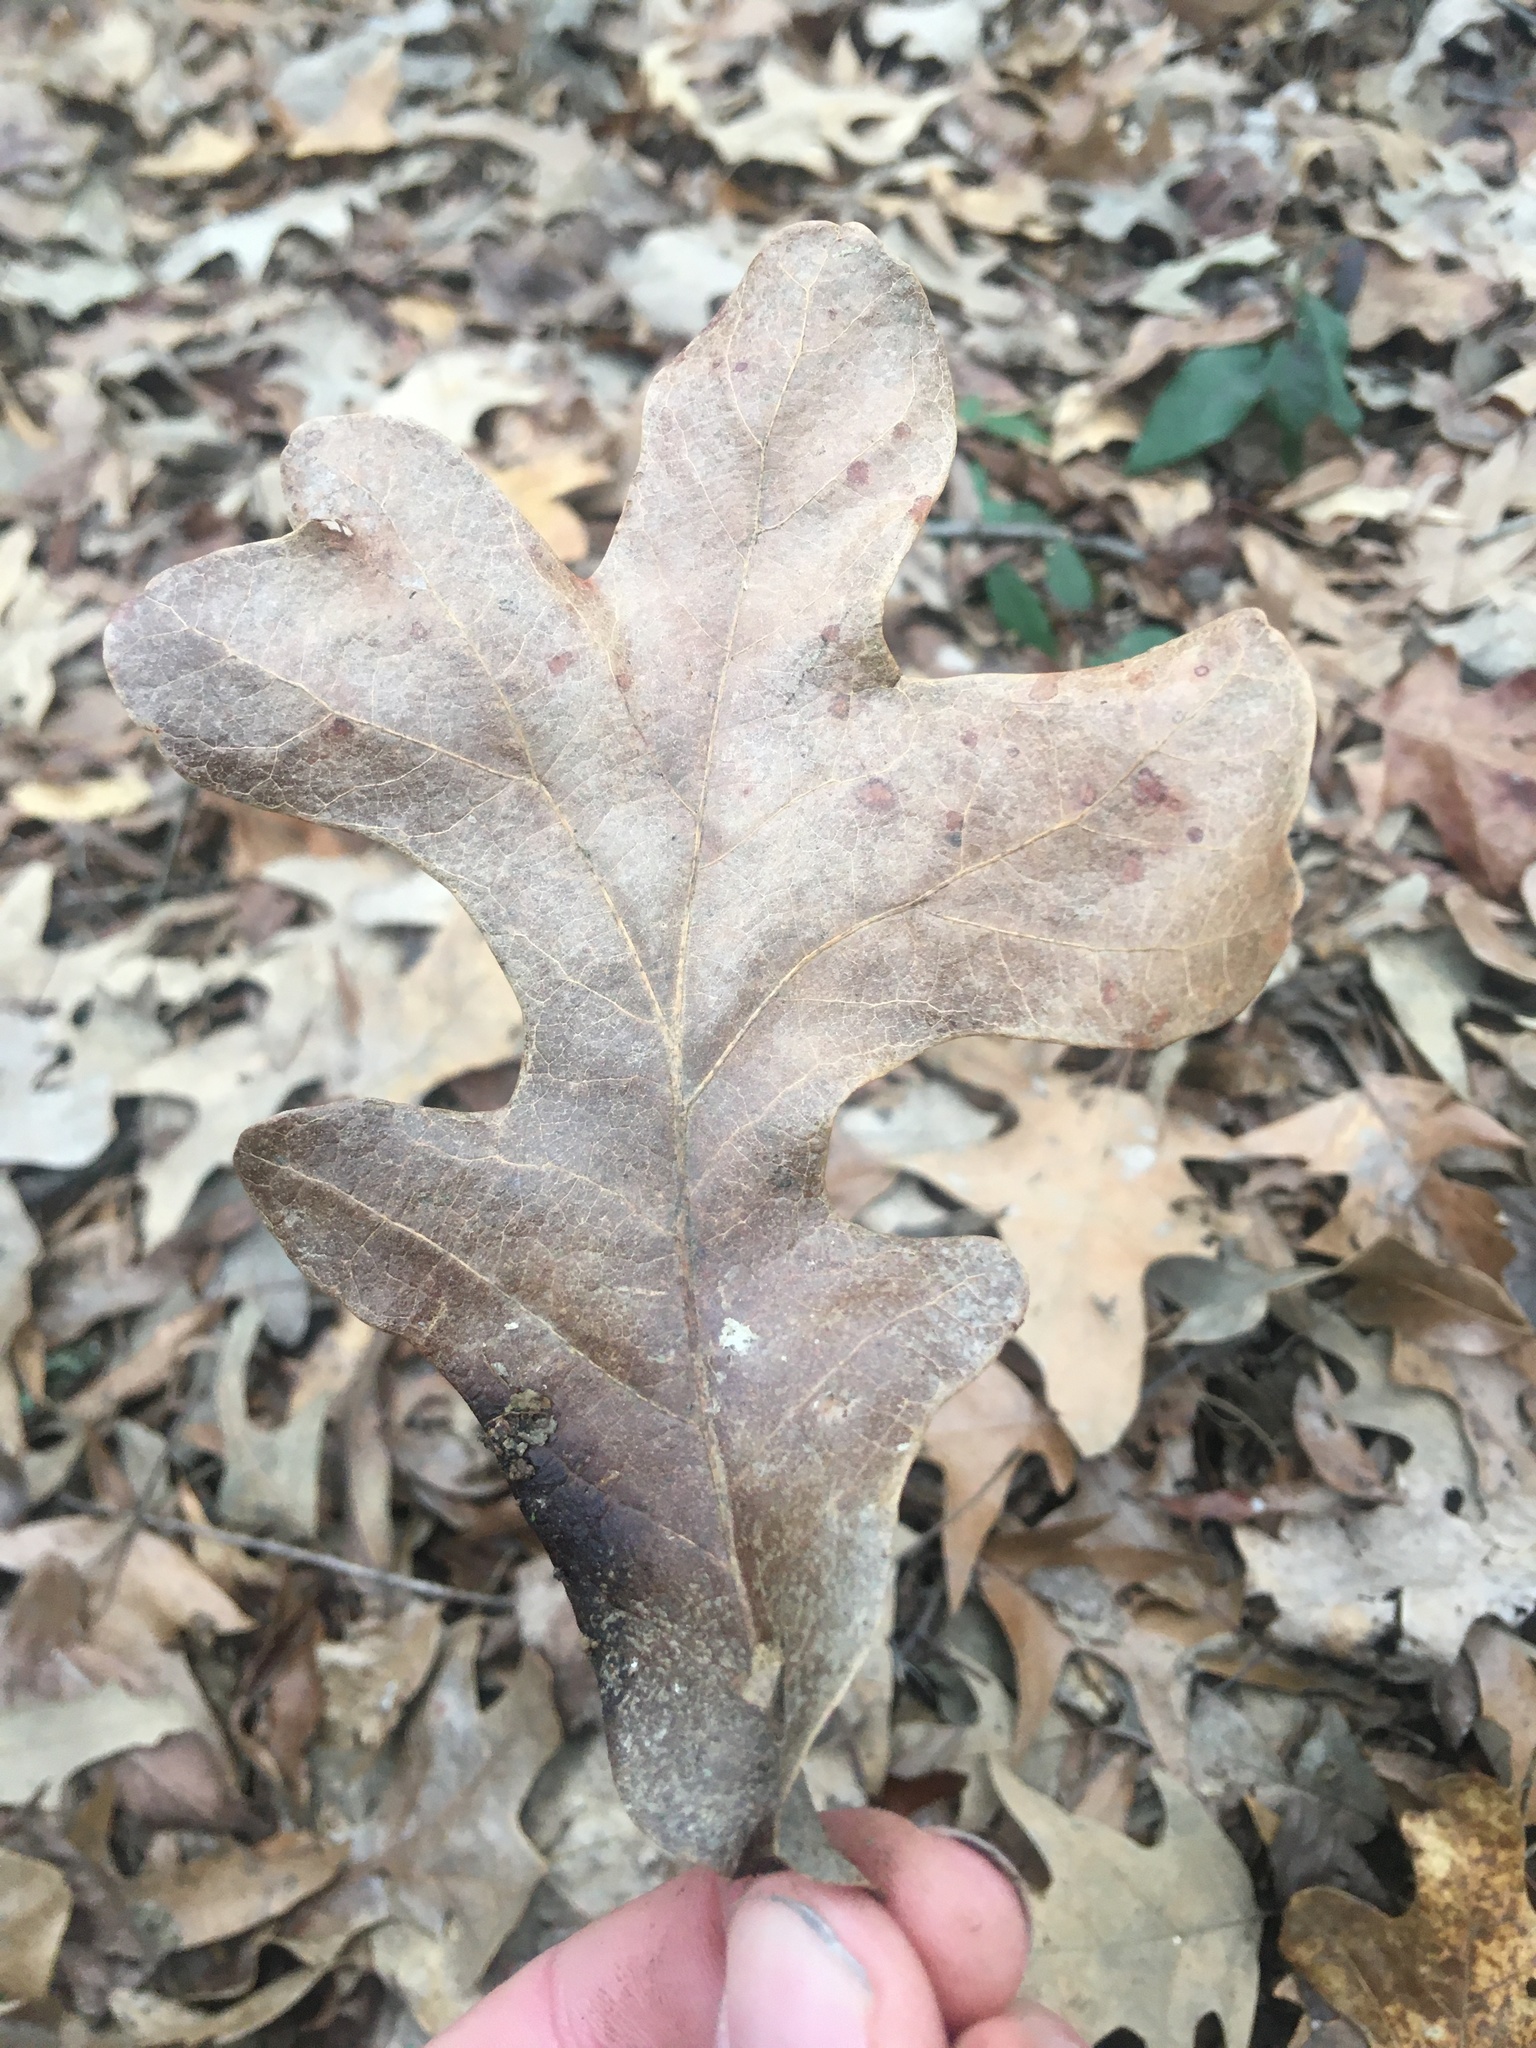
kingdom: Plantae
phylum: Tracheophyta
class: Magnoliopsida
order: Fagales
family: Fagaceae
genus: Quercus
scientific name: Quercus stellata
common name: Post oak
